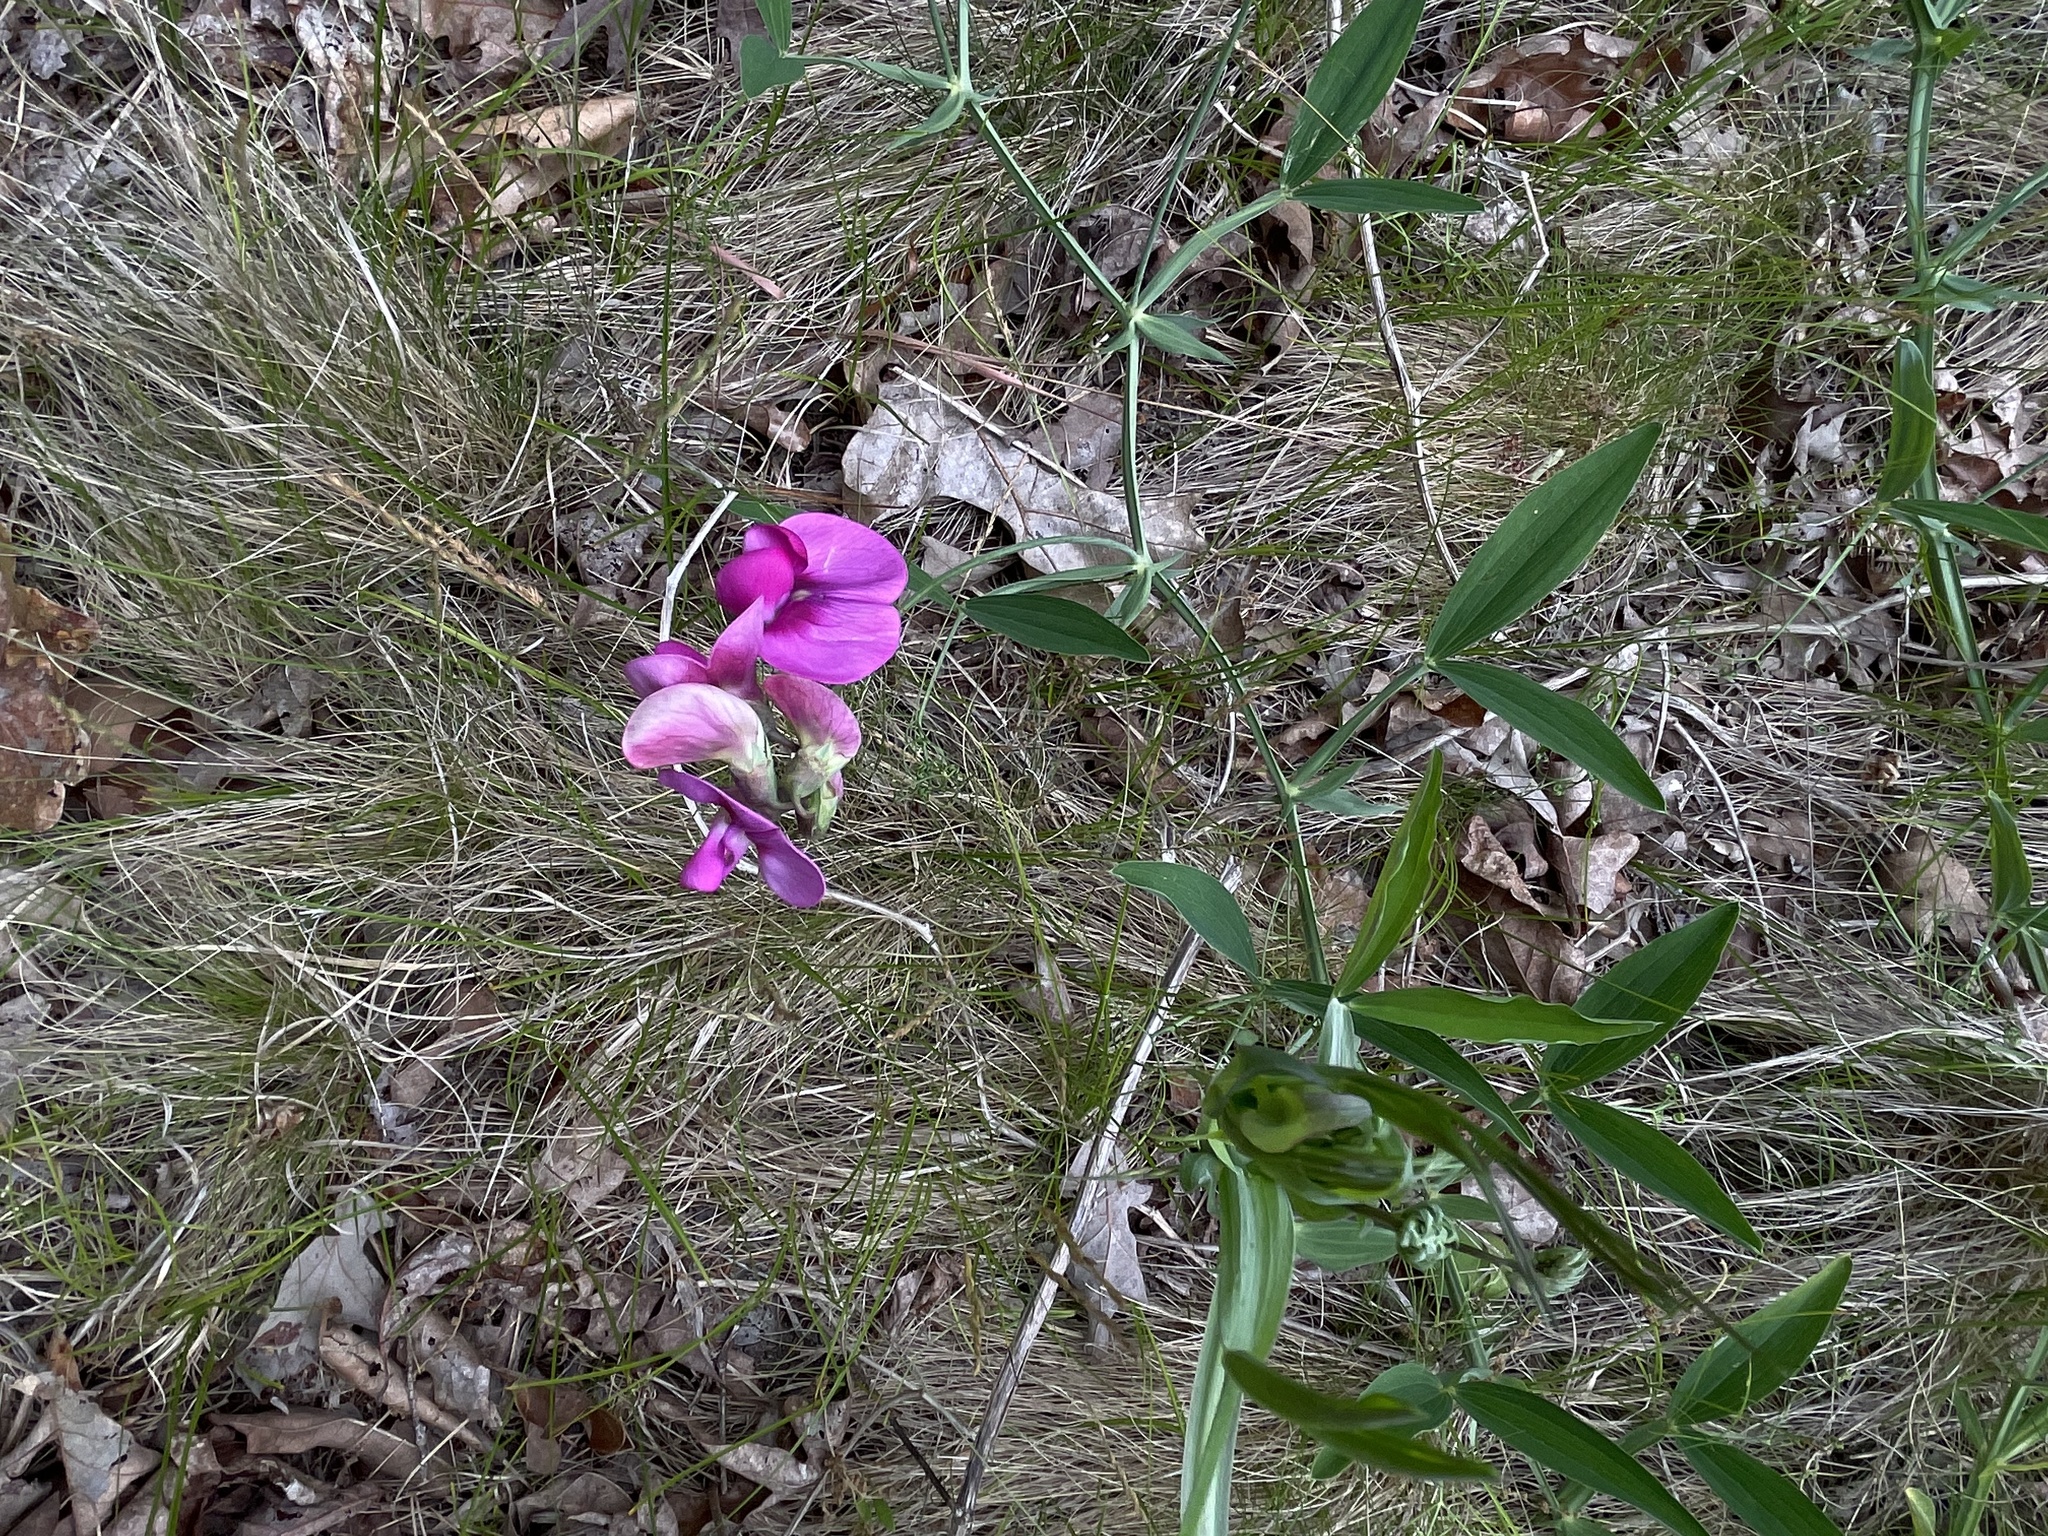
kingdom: Plantae
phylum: Tracheophyta
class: Magnoliopsida
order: Fabales
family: Fabaceae
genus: Lathyrus
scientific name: Lathyrus latifolius
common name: Perennial pea
